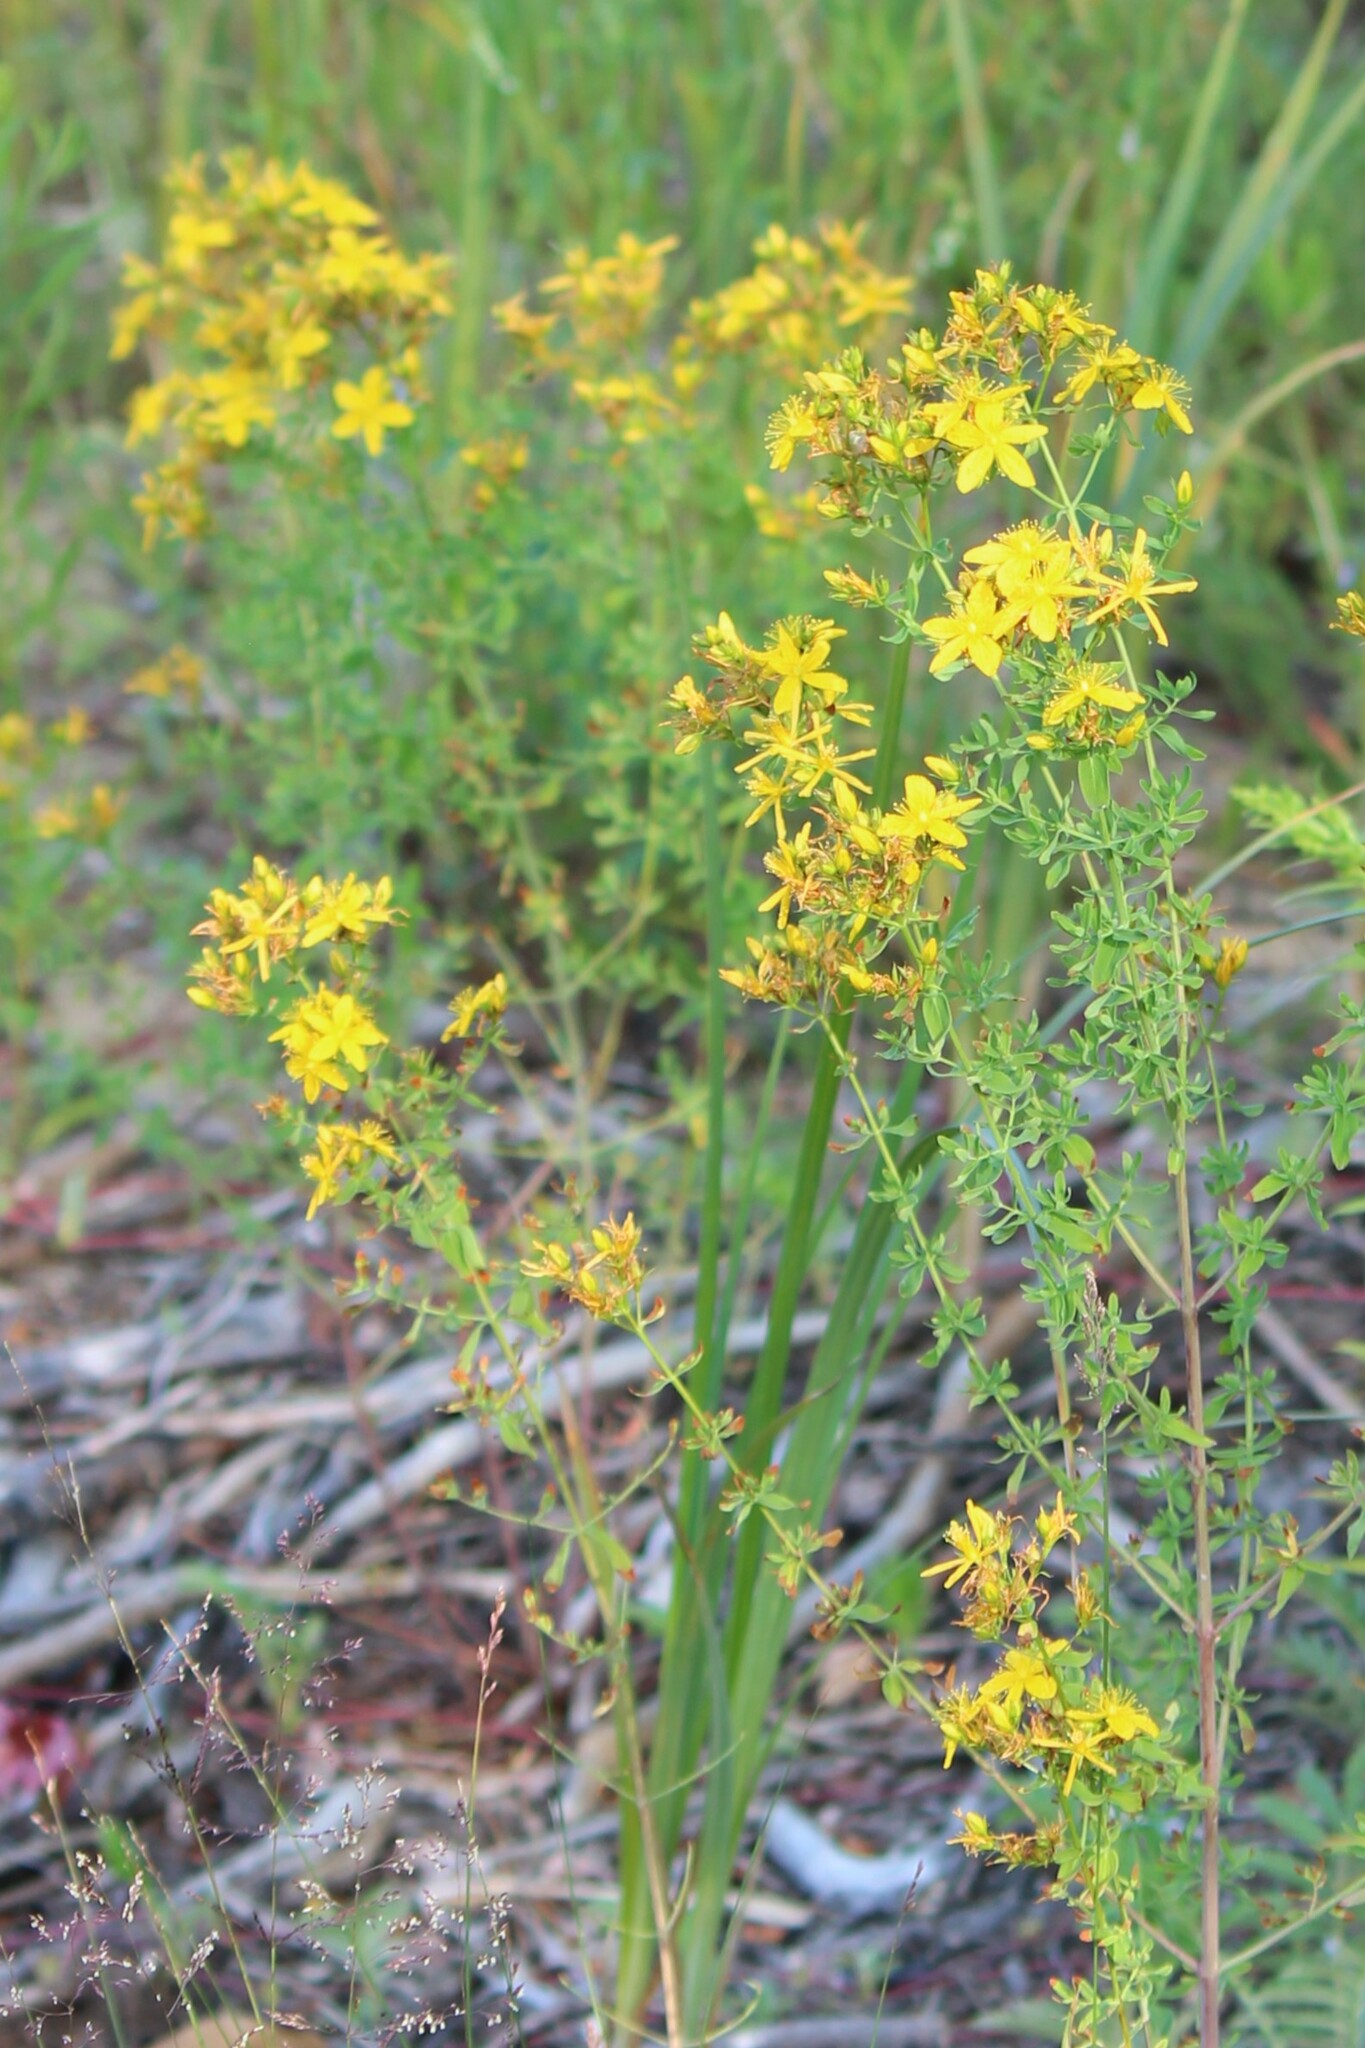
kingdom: Plantae
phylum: Tracheophyta
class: Magnoliopsida
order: Malpighiales
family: Hypericaceae
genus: Hypericum
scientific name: Hypericum perforatum
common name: Common st. johnswort
